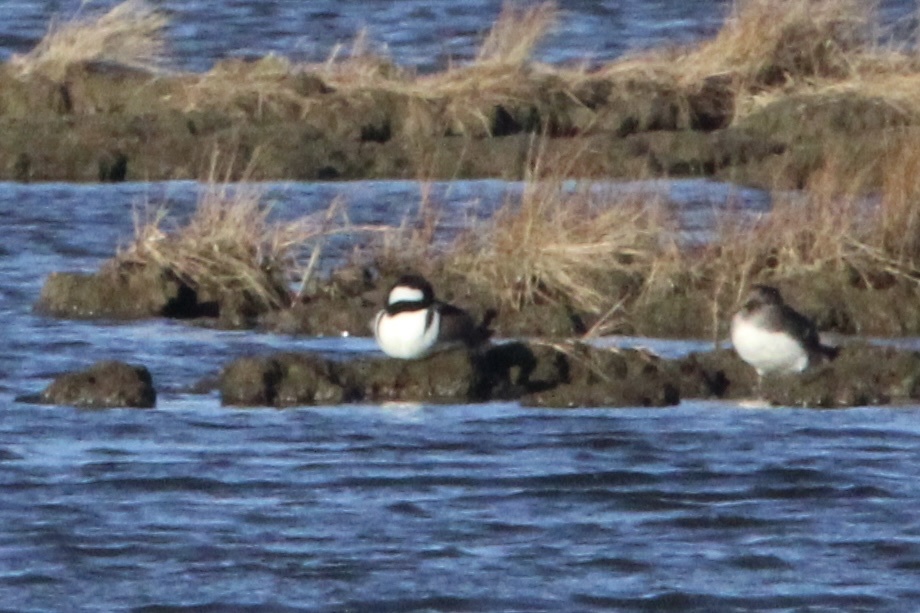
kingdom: Animalia
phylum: Chordata
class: Aves
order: Anseriformes
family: Anatidae
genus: Lophodytes
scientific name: Lophodytes cucullatus
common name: Hooded merganser
